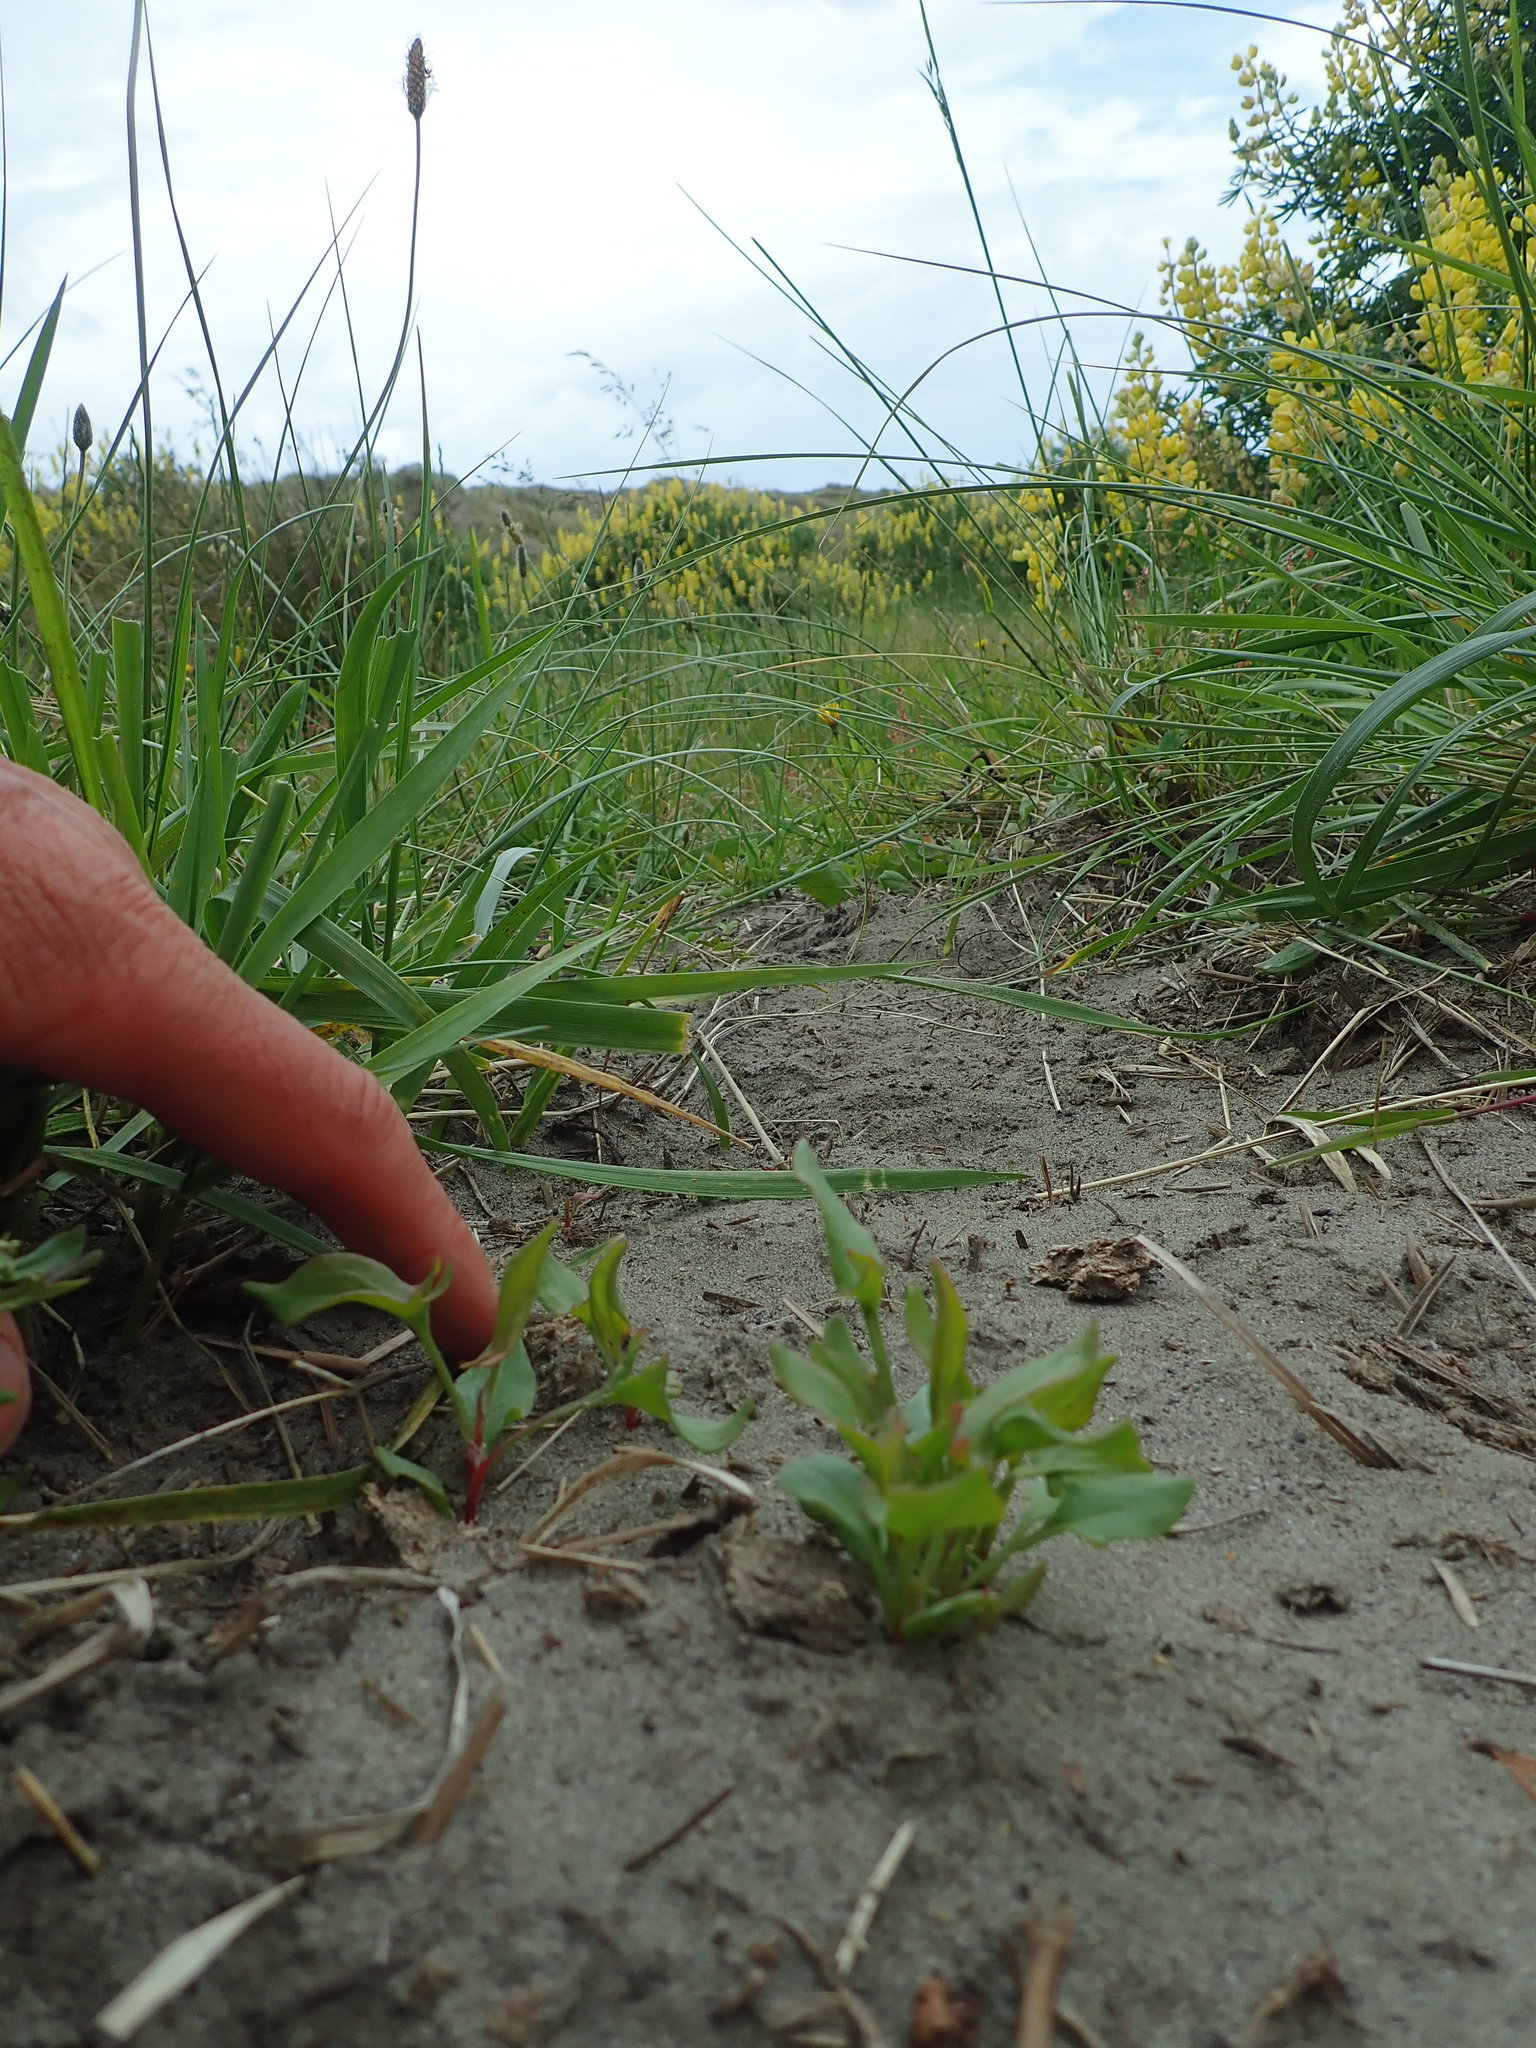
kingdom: Plantae
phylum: Tracheophyta
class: Magnoliopsida
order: Caryophyllales
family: Polygonaceae
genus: Rumex
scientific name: Rumex acetosella
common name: Common sheep sorrel
